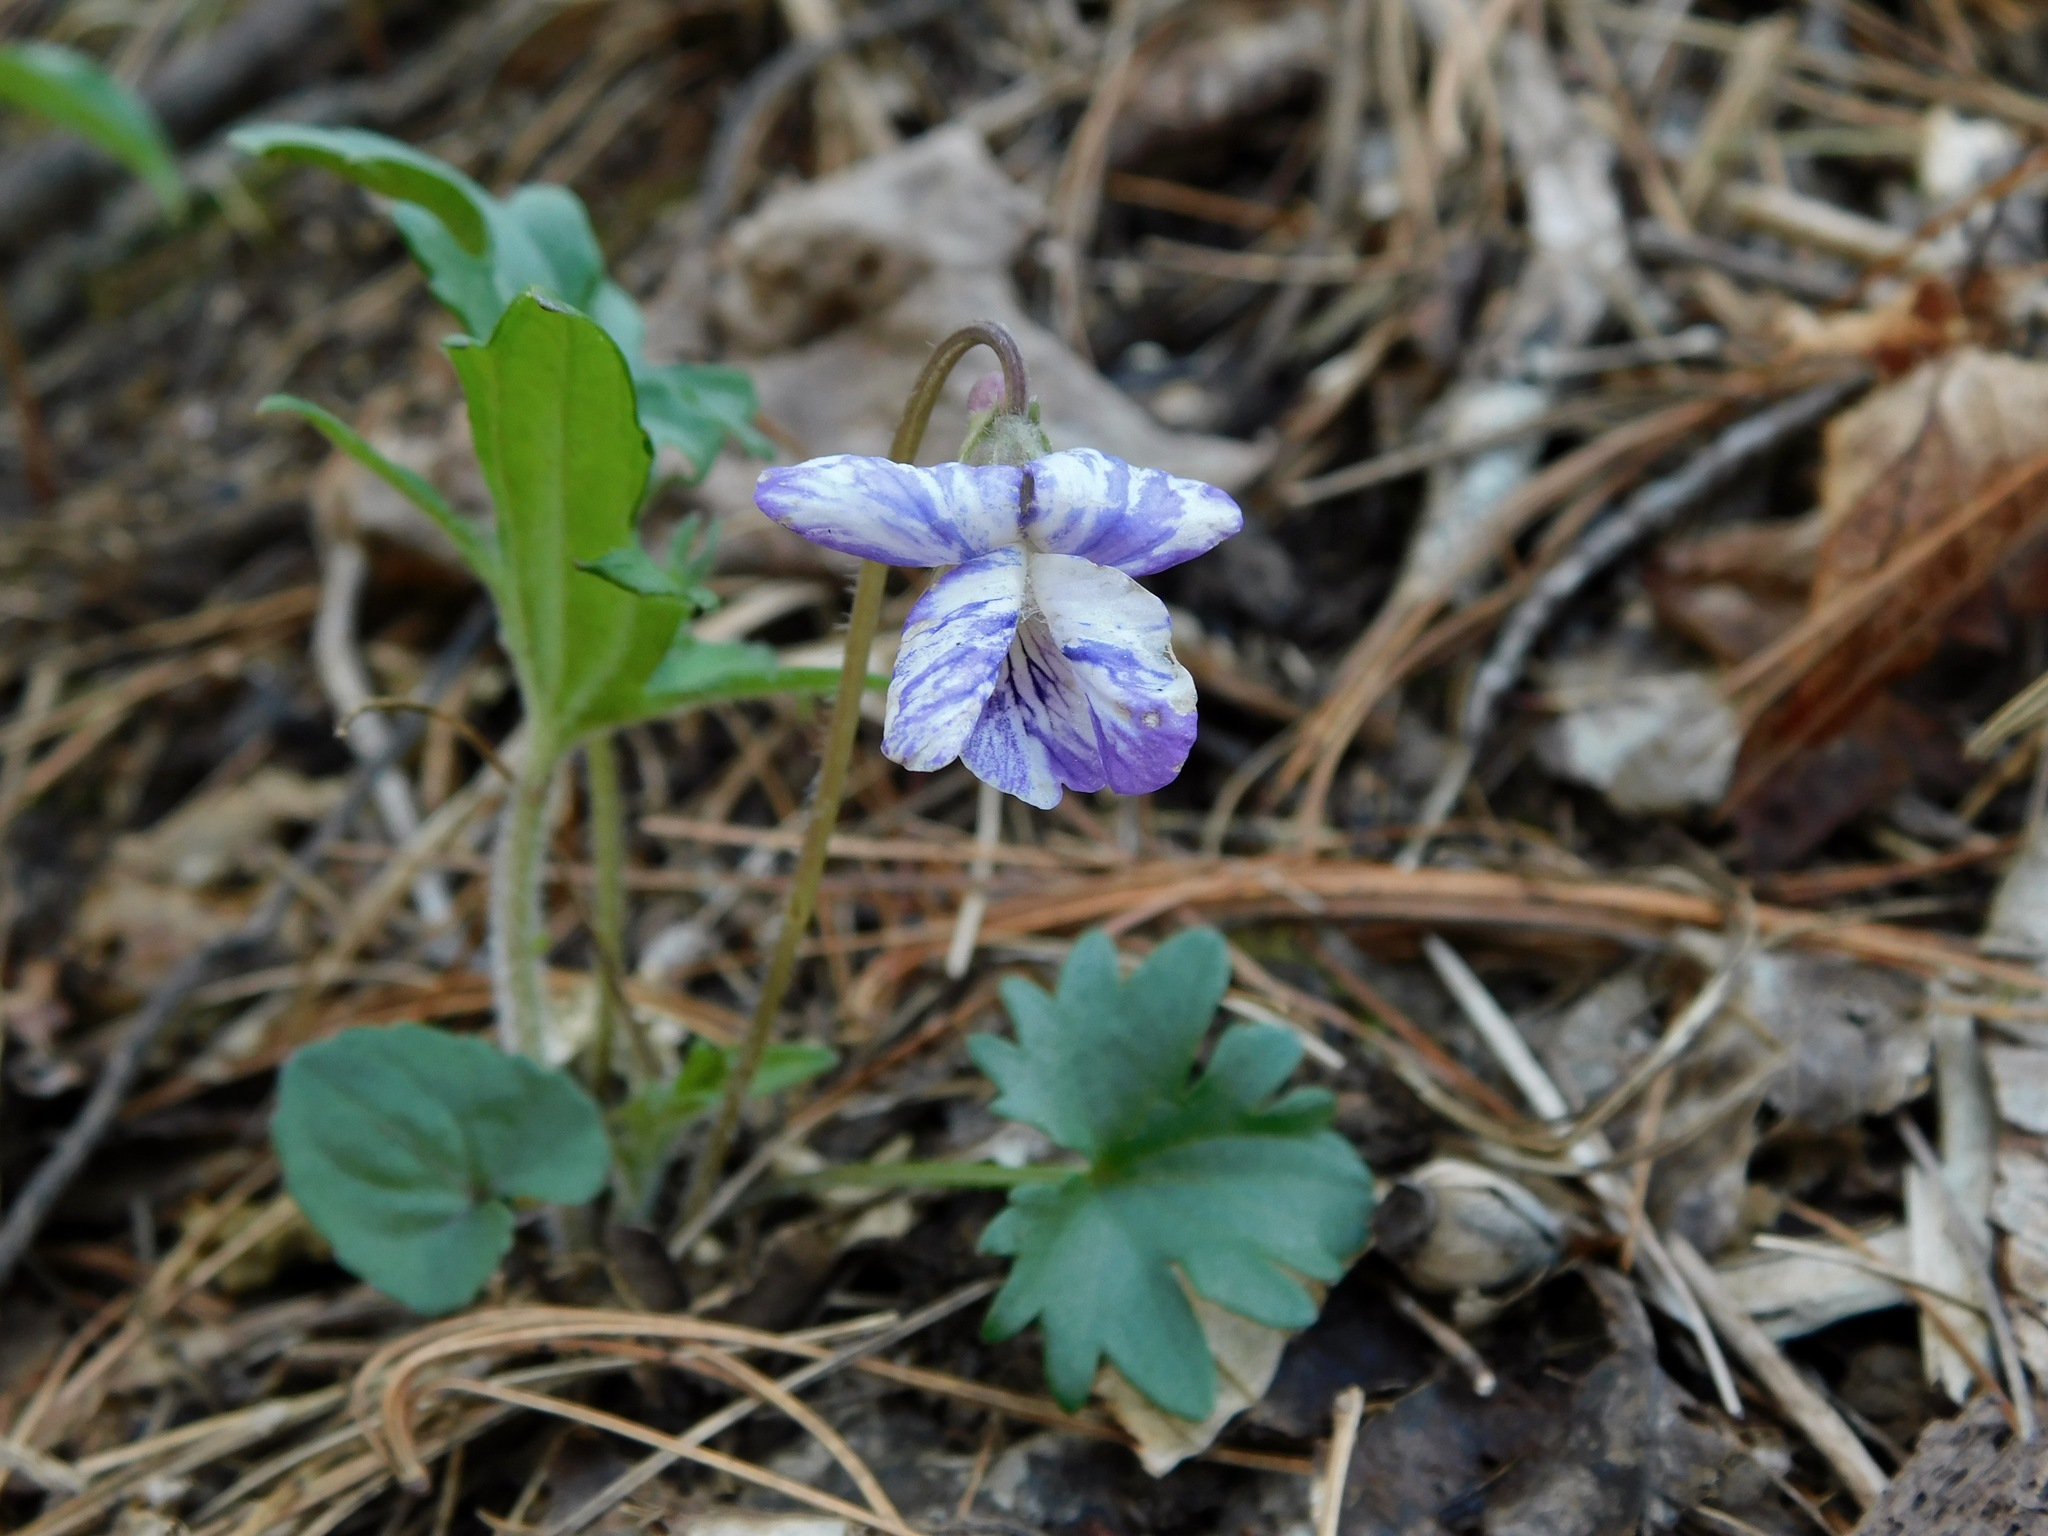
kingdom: Plantae
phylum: Tracheophyta
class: Magnoliopsida
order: Malpighiales
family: Violaceae
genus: Viola
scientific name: Viola palmata
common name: Early blue violet
